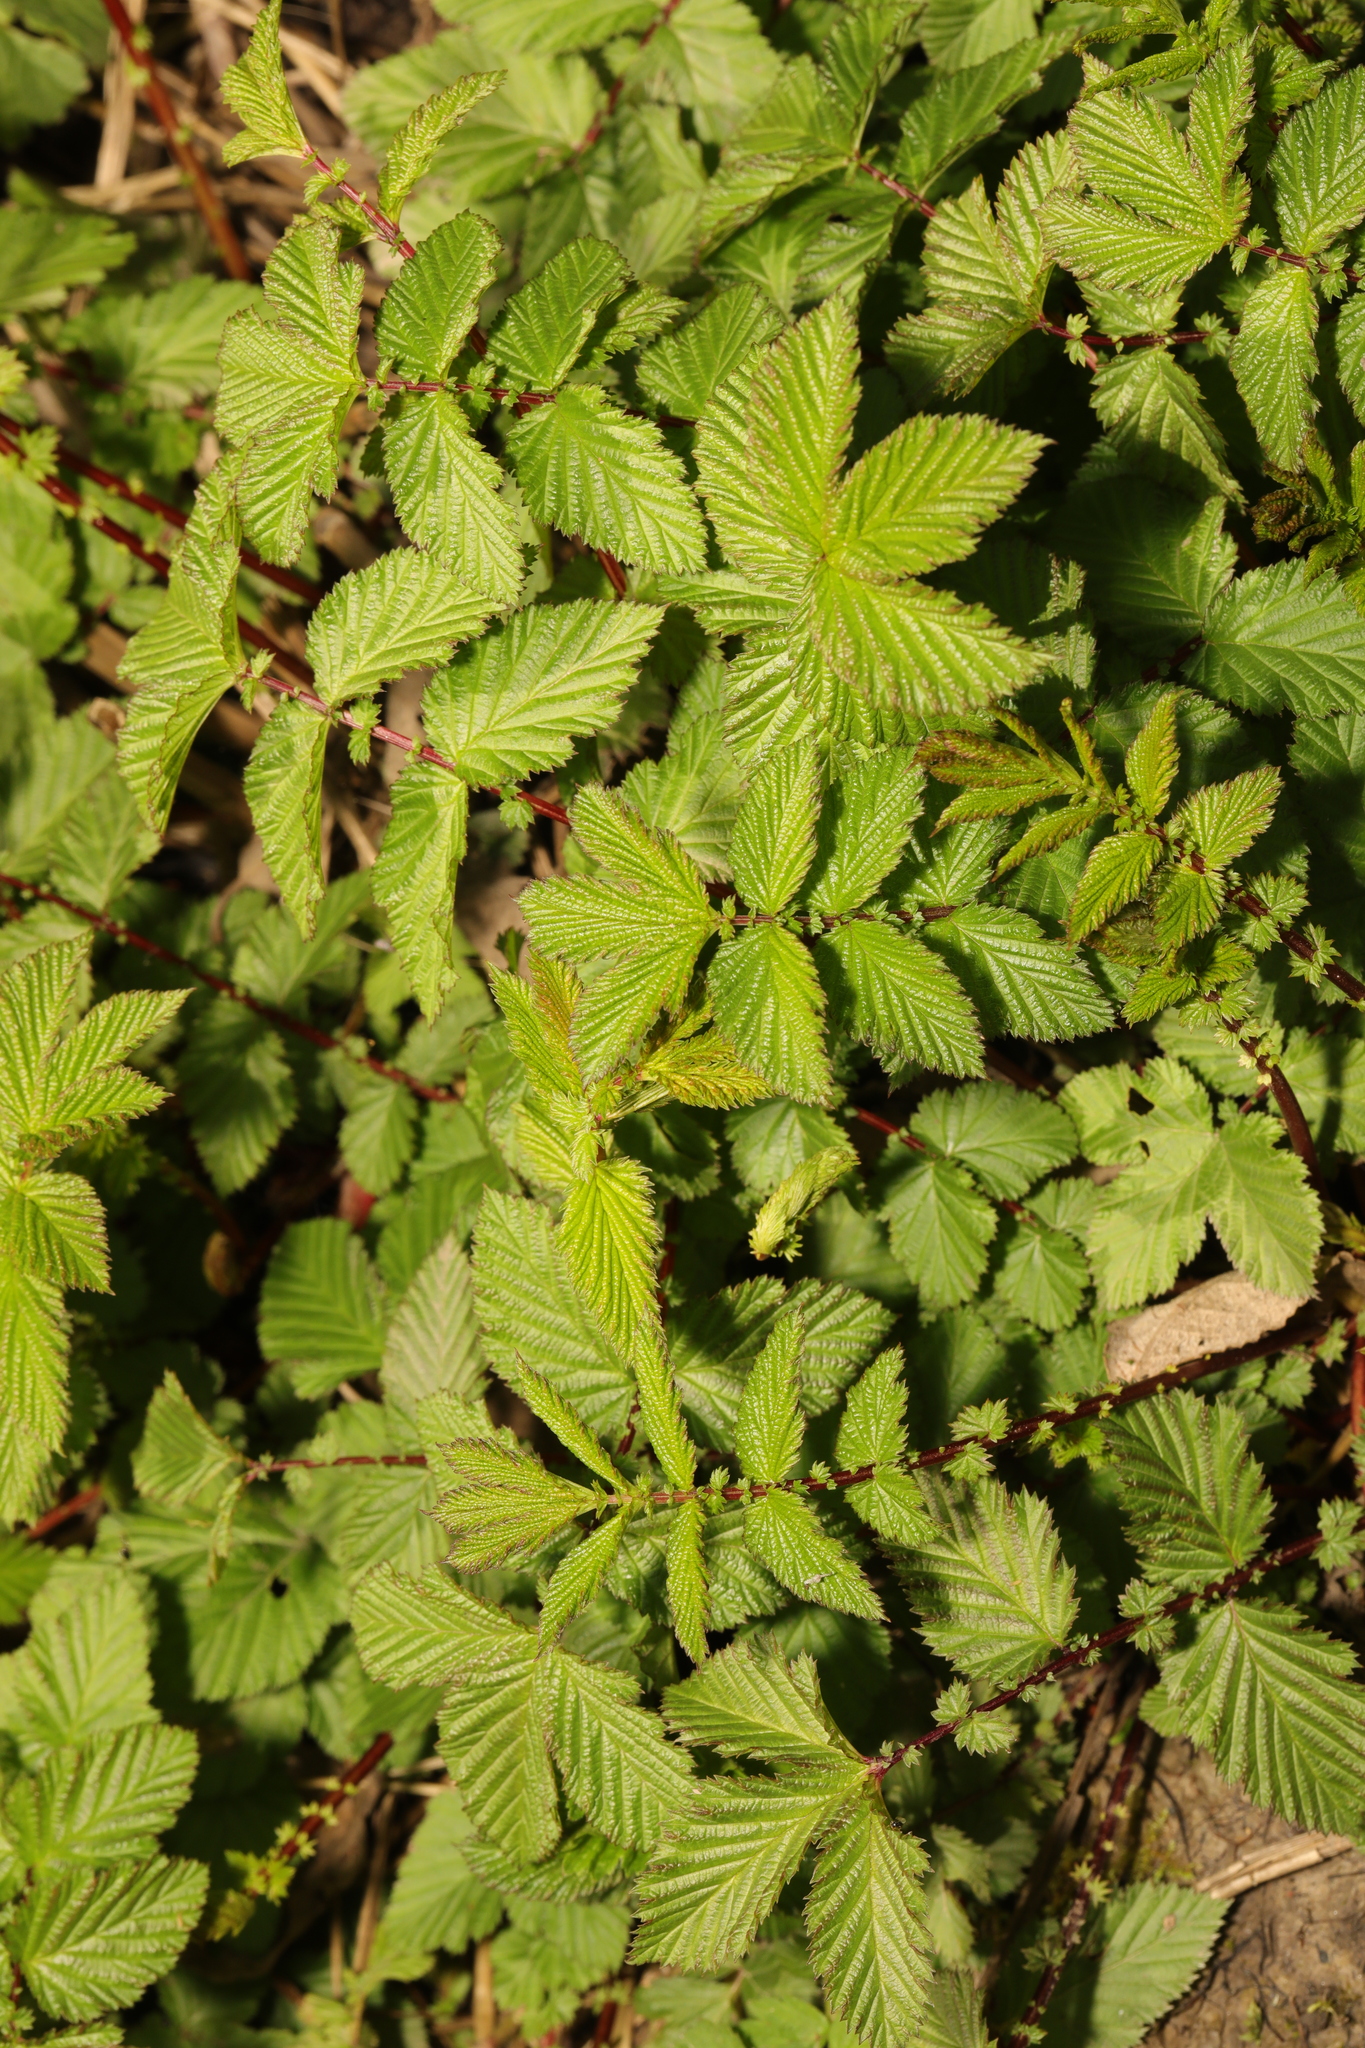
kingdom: Plantae
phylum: Tracheophyta
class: Magnoliopsida
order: Rosales
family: Rosaceae
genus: Filipendula
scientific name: Filipendula ulmaria
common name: Meadowsweet
